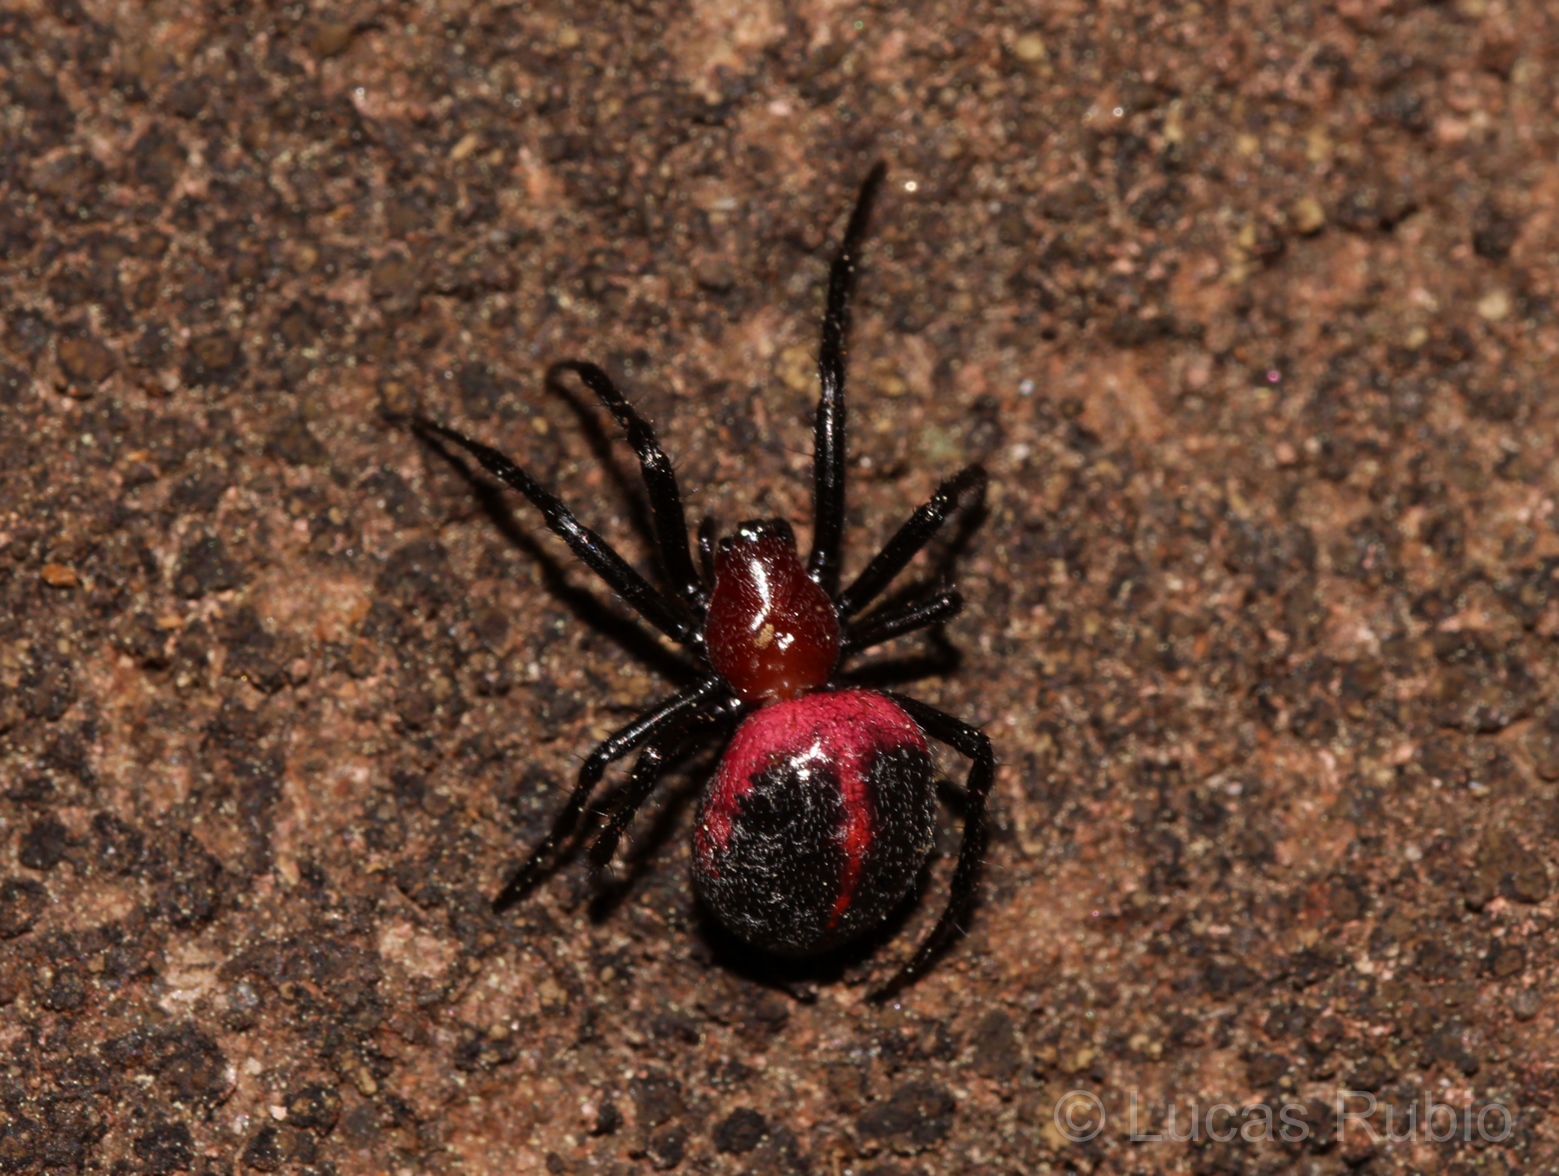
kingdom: Animalia
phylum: Arthropoda
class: Arachnida
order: Araneae
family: Araneidae
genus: Alpaida
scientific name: Alpaida carminea
